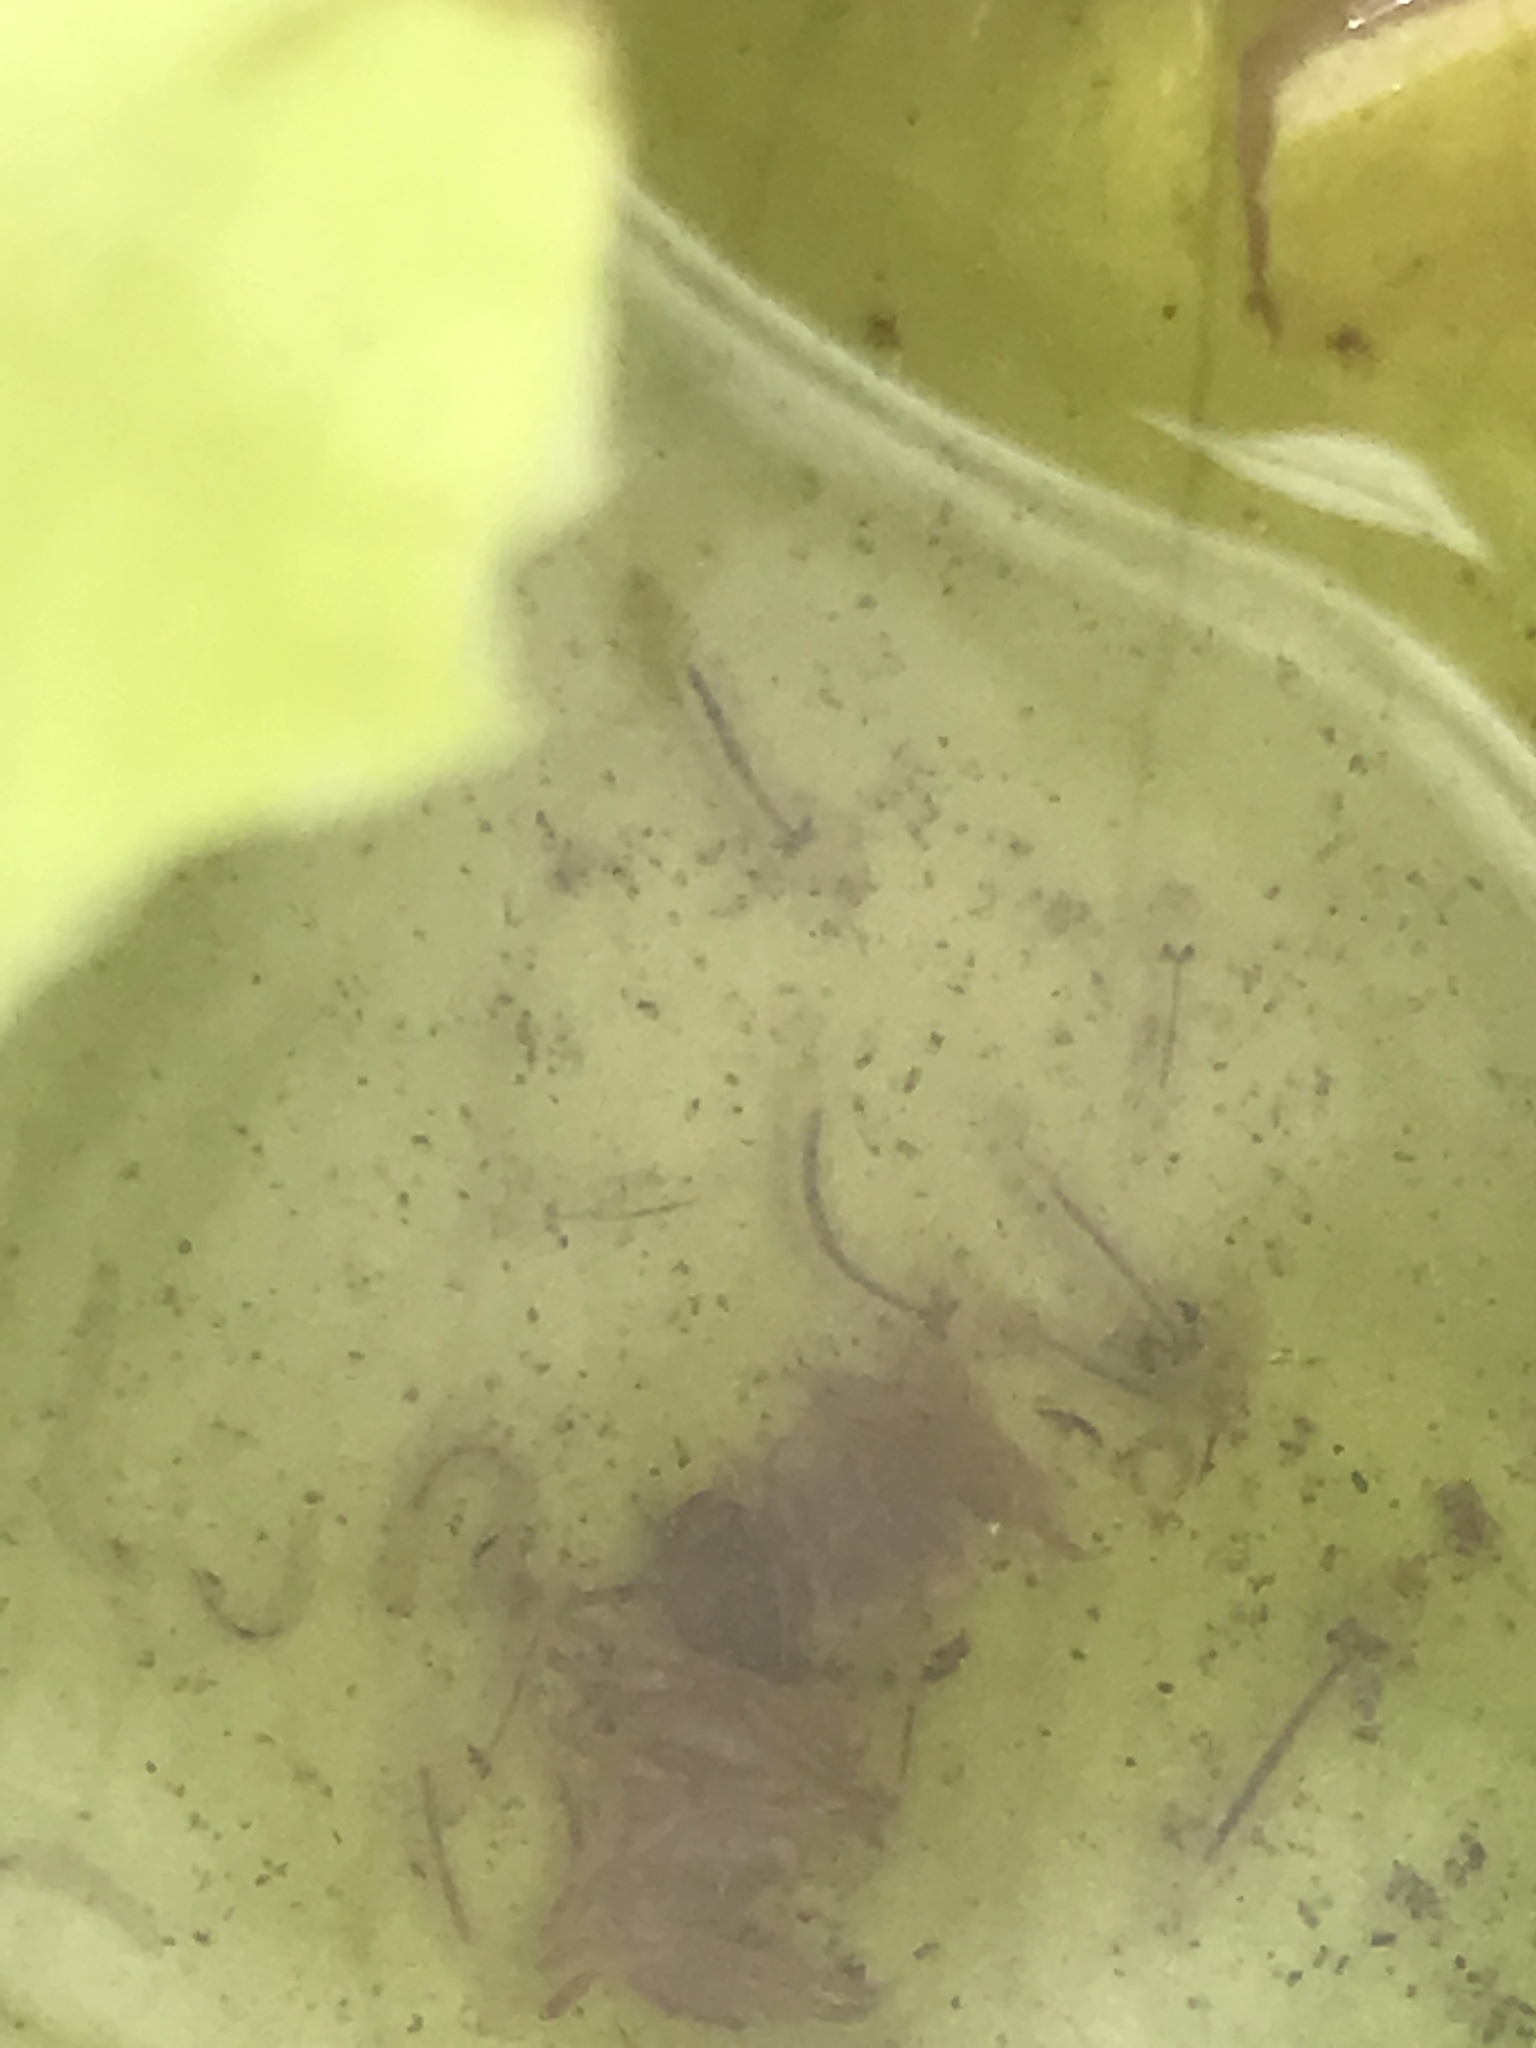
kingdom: Animalia
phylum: Arthropoda
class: Insecta
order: Diptera
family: Culicidae
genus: Wyeomyia
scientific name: Wyeomyia smithii
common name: Pitcher-plant mosquito
